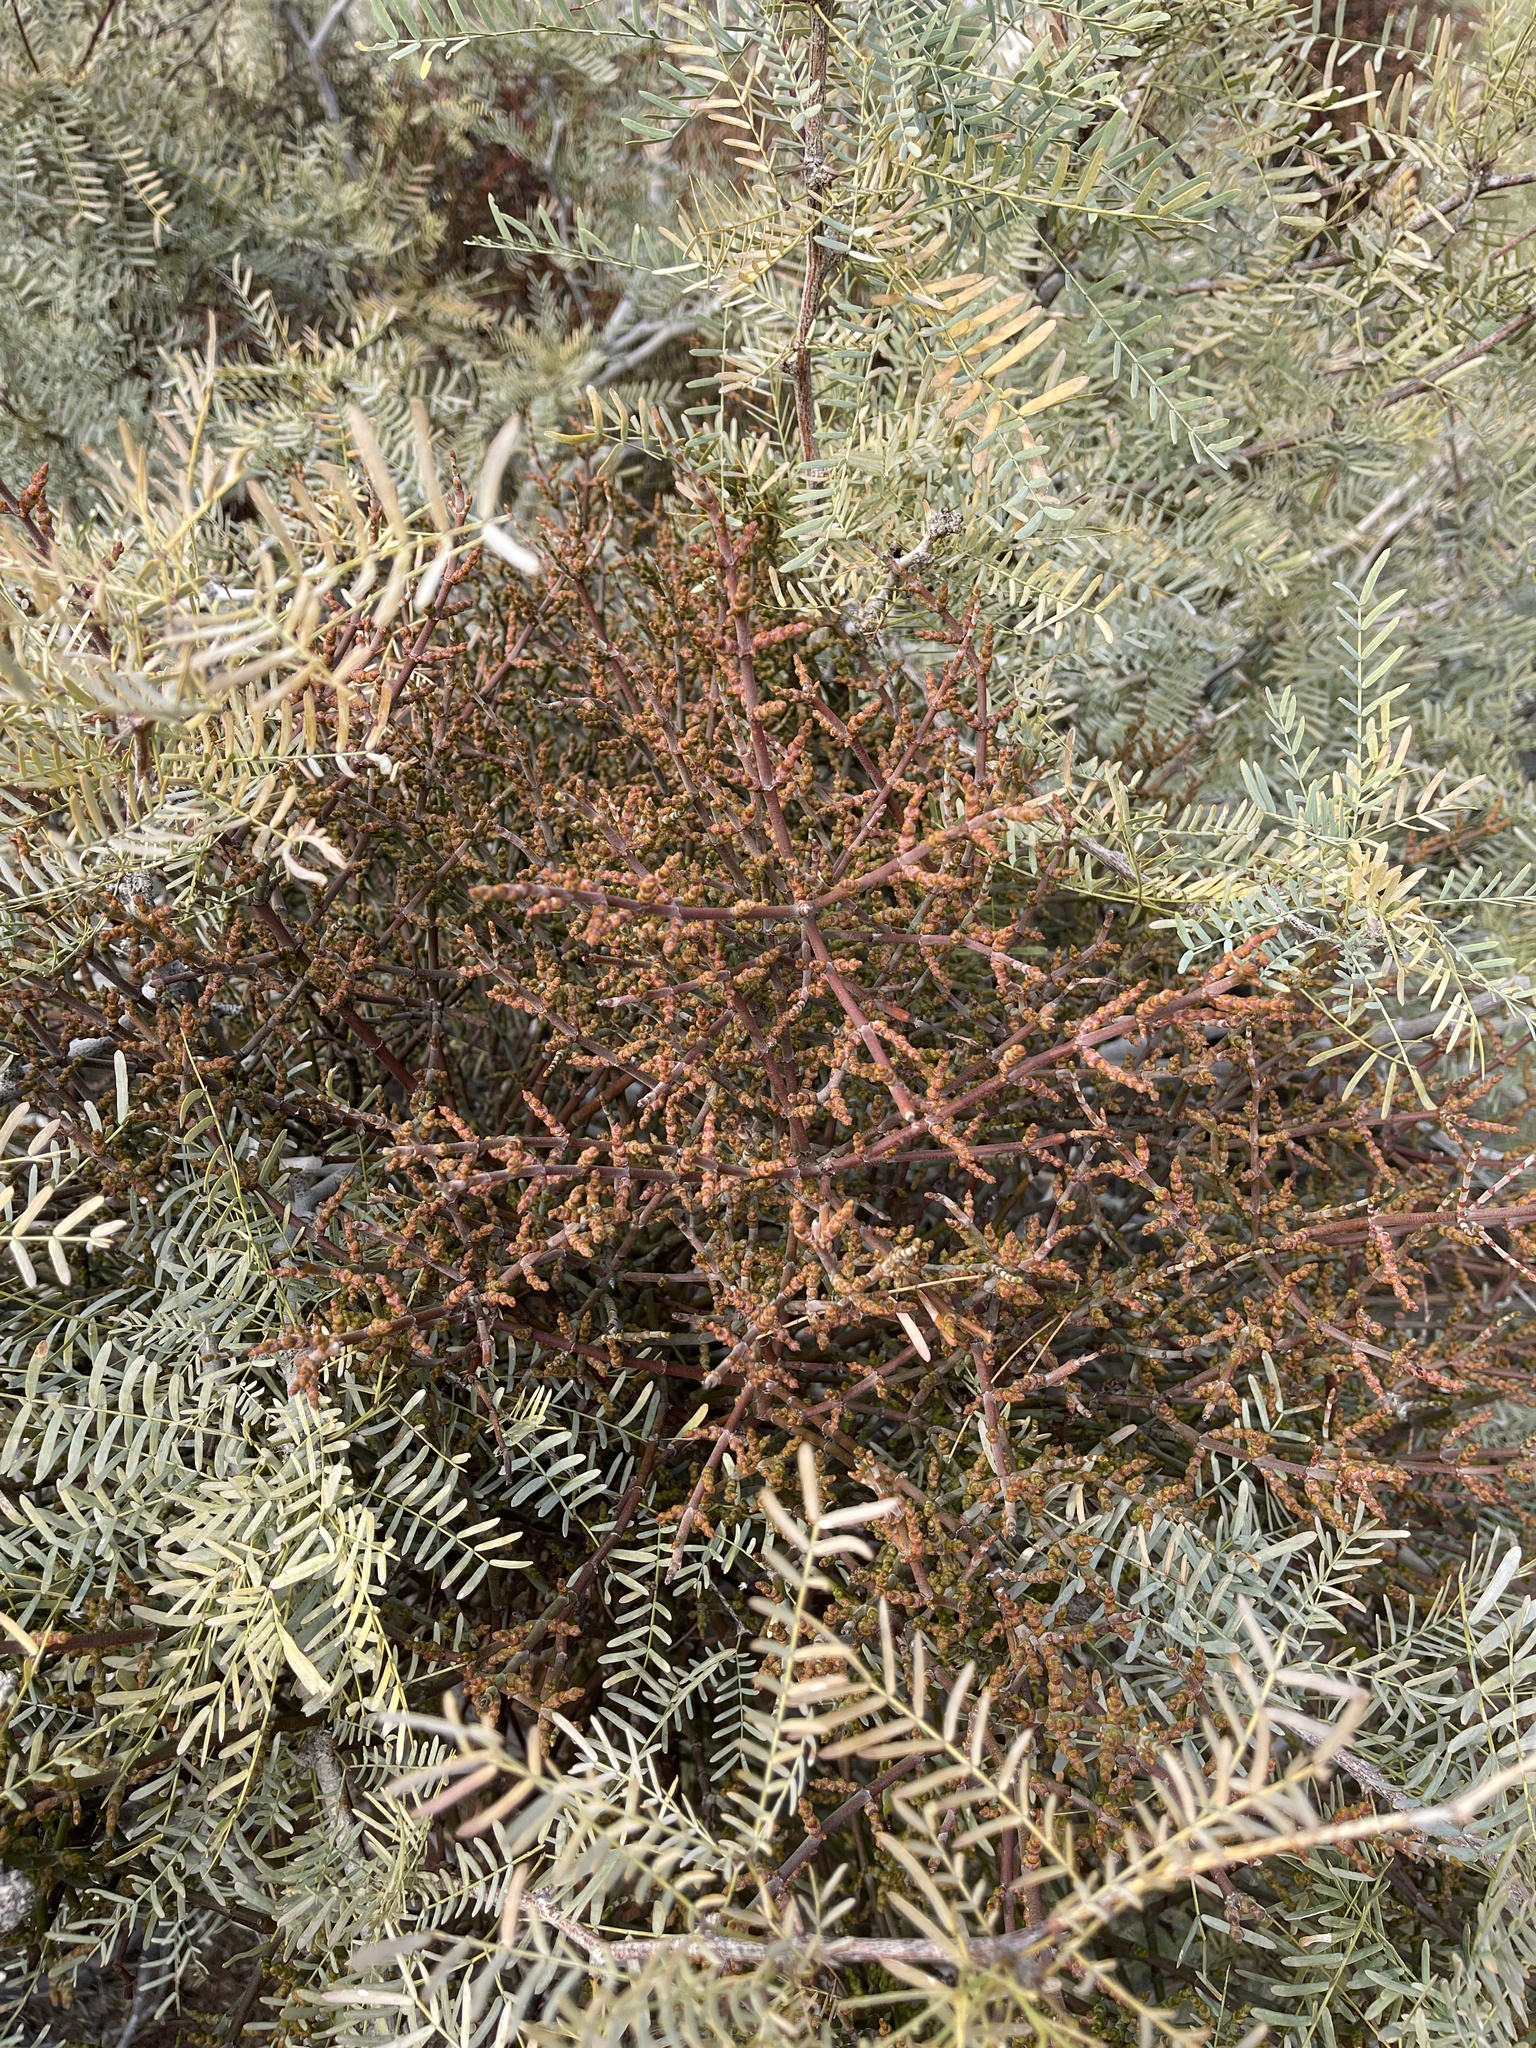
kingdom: Plantae
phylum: Tracheophyta
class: Magnoliopsida
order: Santalales
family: Viscaceae
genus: Phoradendron
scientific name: Phoradendron californicum
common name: Acacia mistletoe
